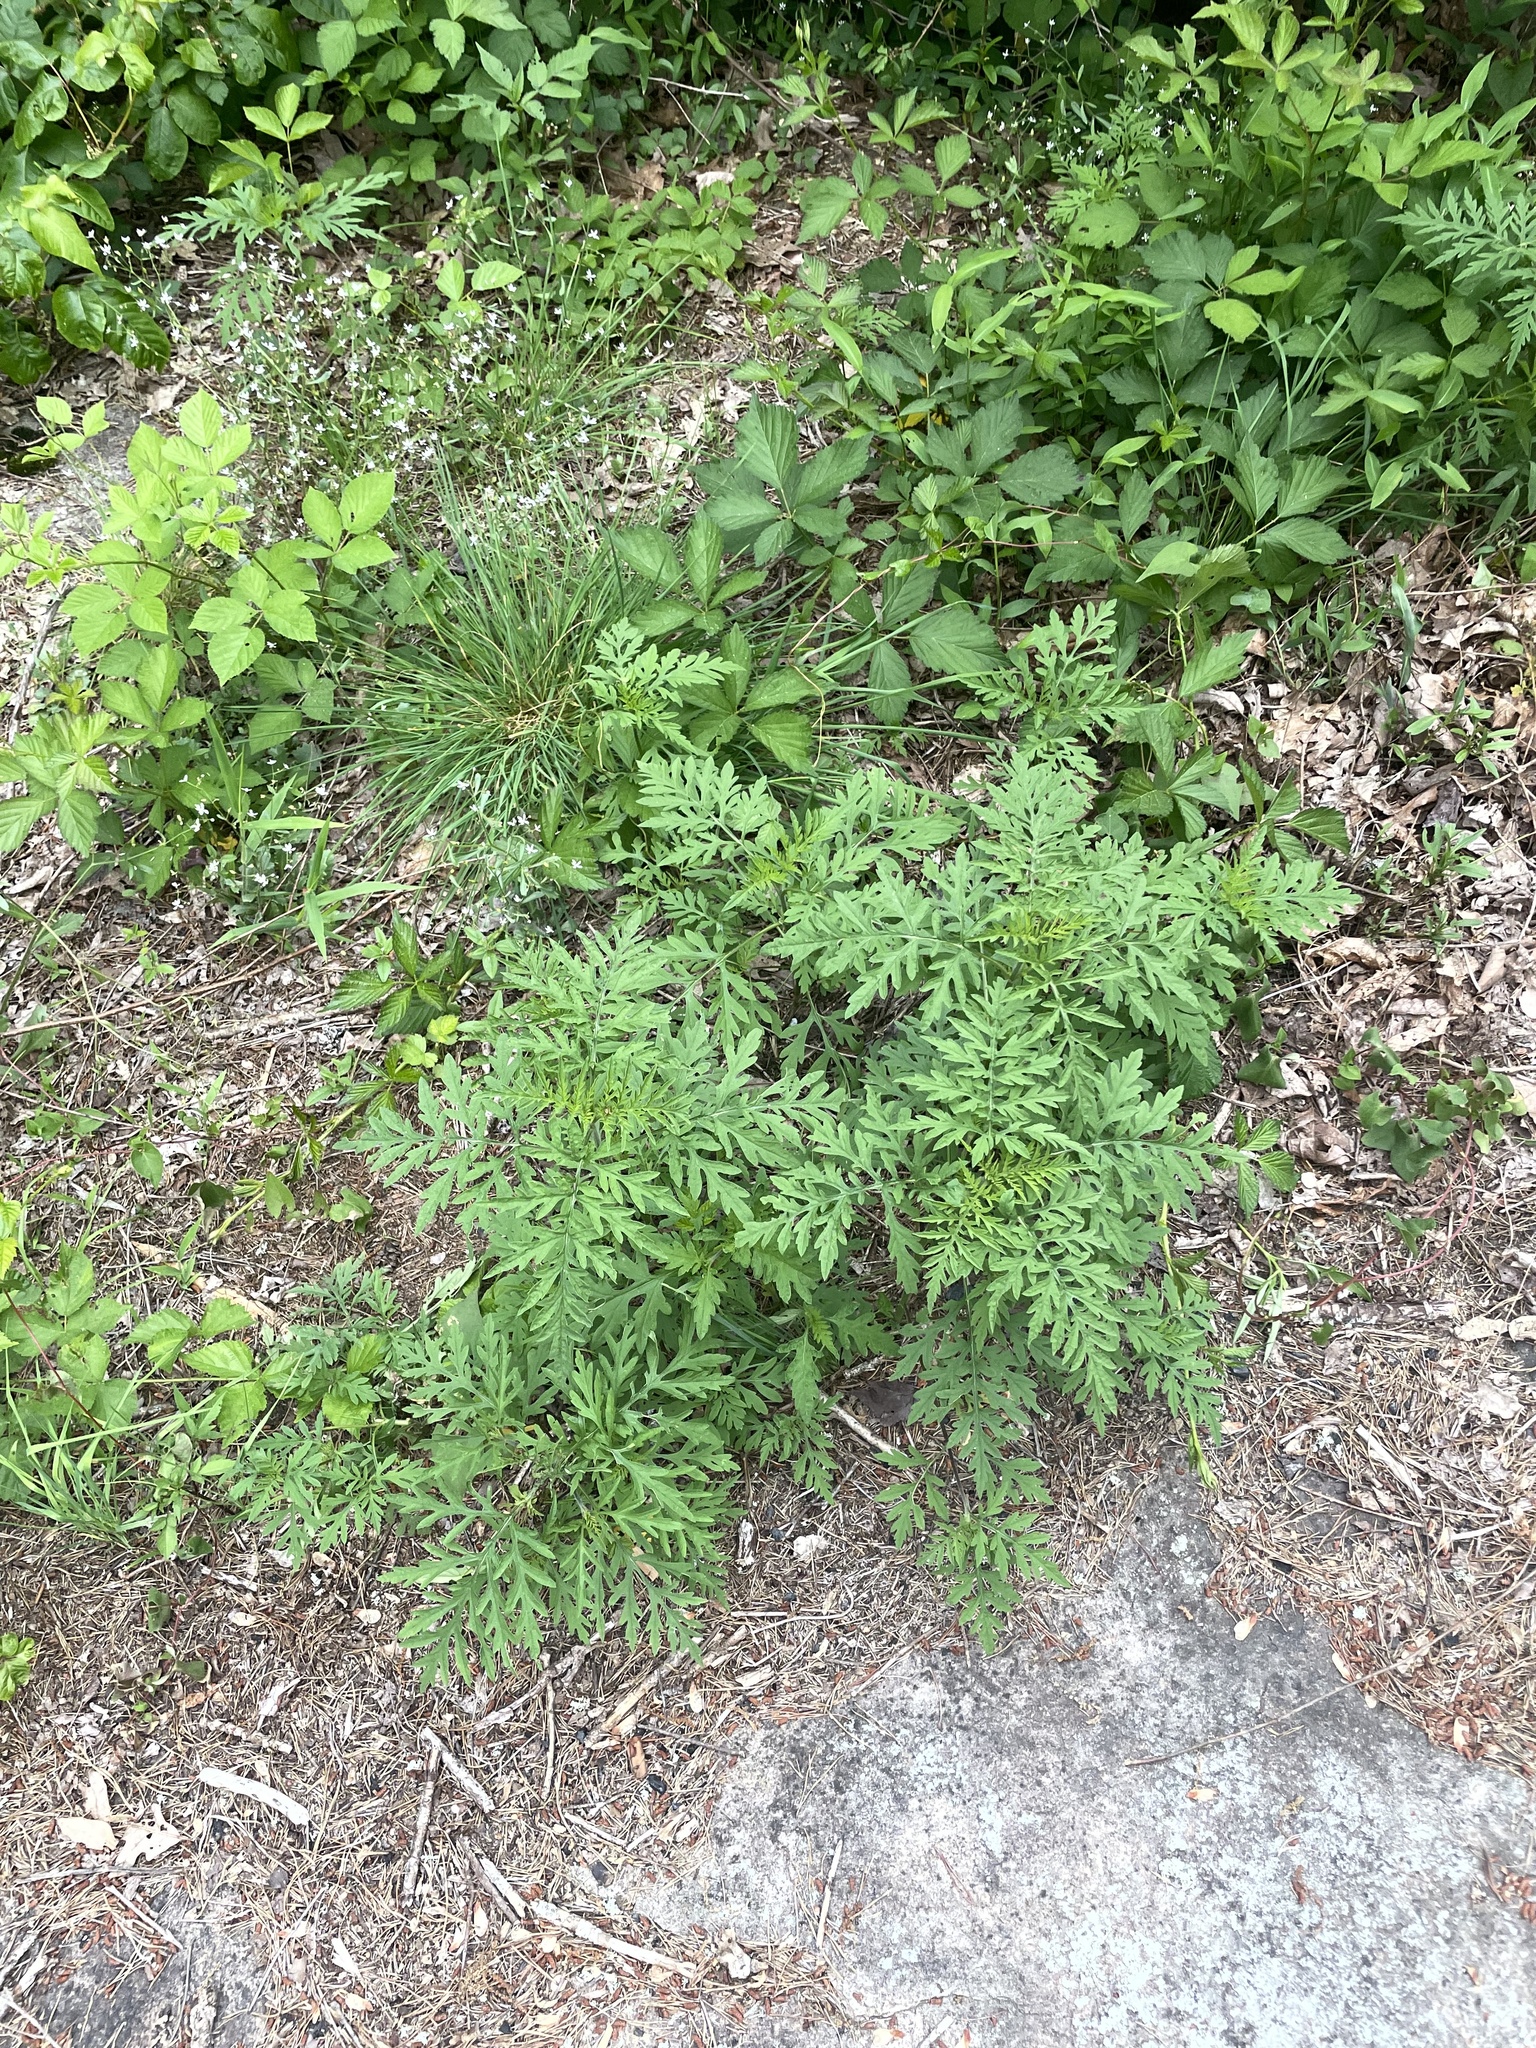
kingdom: Plantae
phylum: Tracheophyta
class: Magnoliopsida
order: Asterales
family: Asteraceae
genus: Ambrosia
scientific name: Ambrosia artemisiifolia
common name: Annual ragweed
